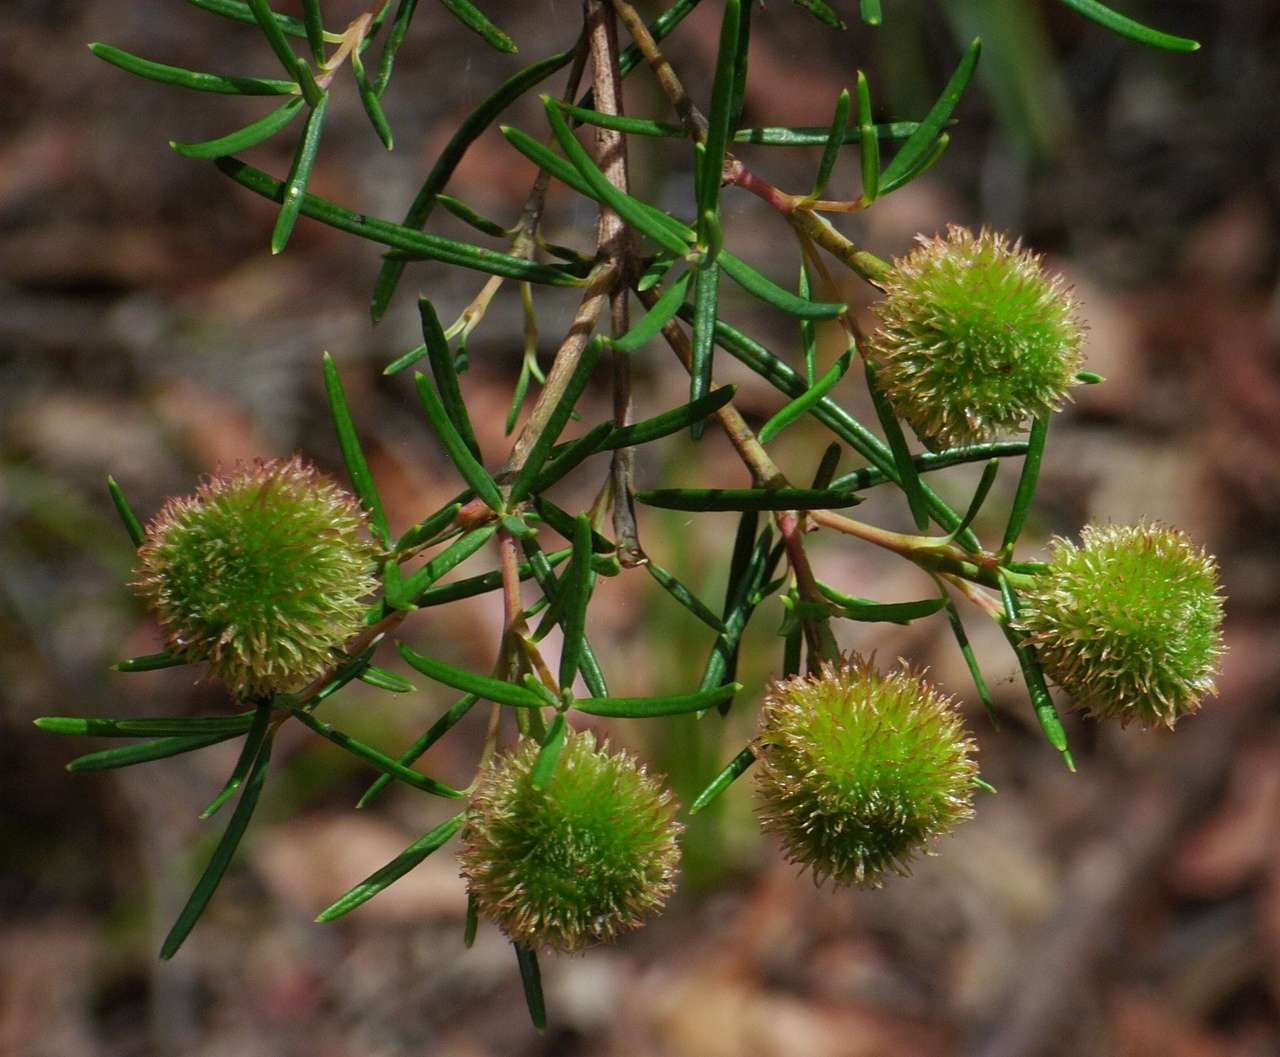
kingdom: Plantae
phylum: Tracheophyta
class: Magnoliopsida
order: Malpighiales
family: Euphorbiaceae
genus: Ricinocarpos
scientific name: Ricinocarpos pinifolius
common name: Weddingbush
